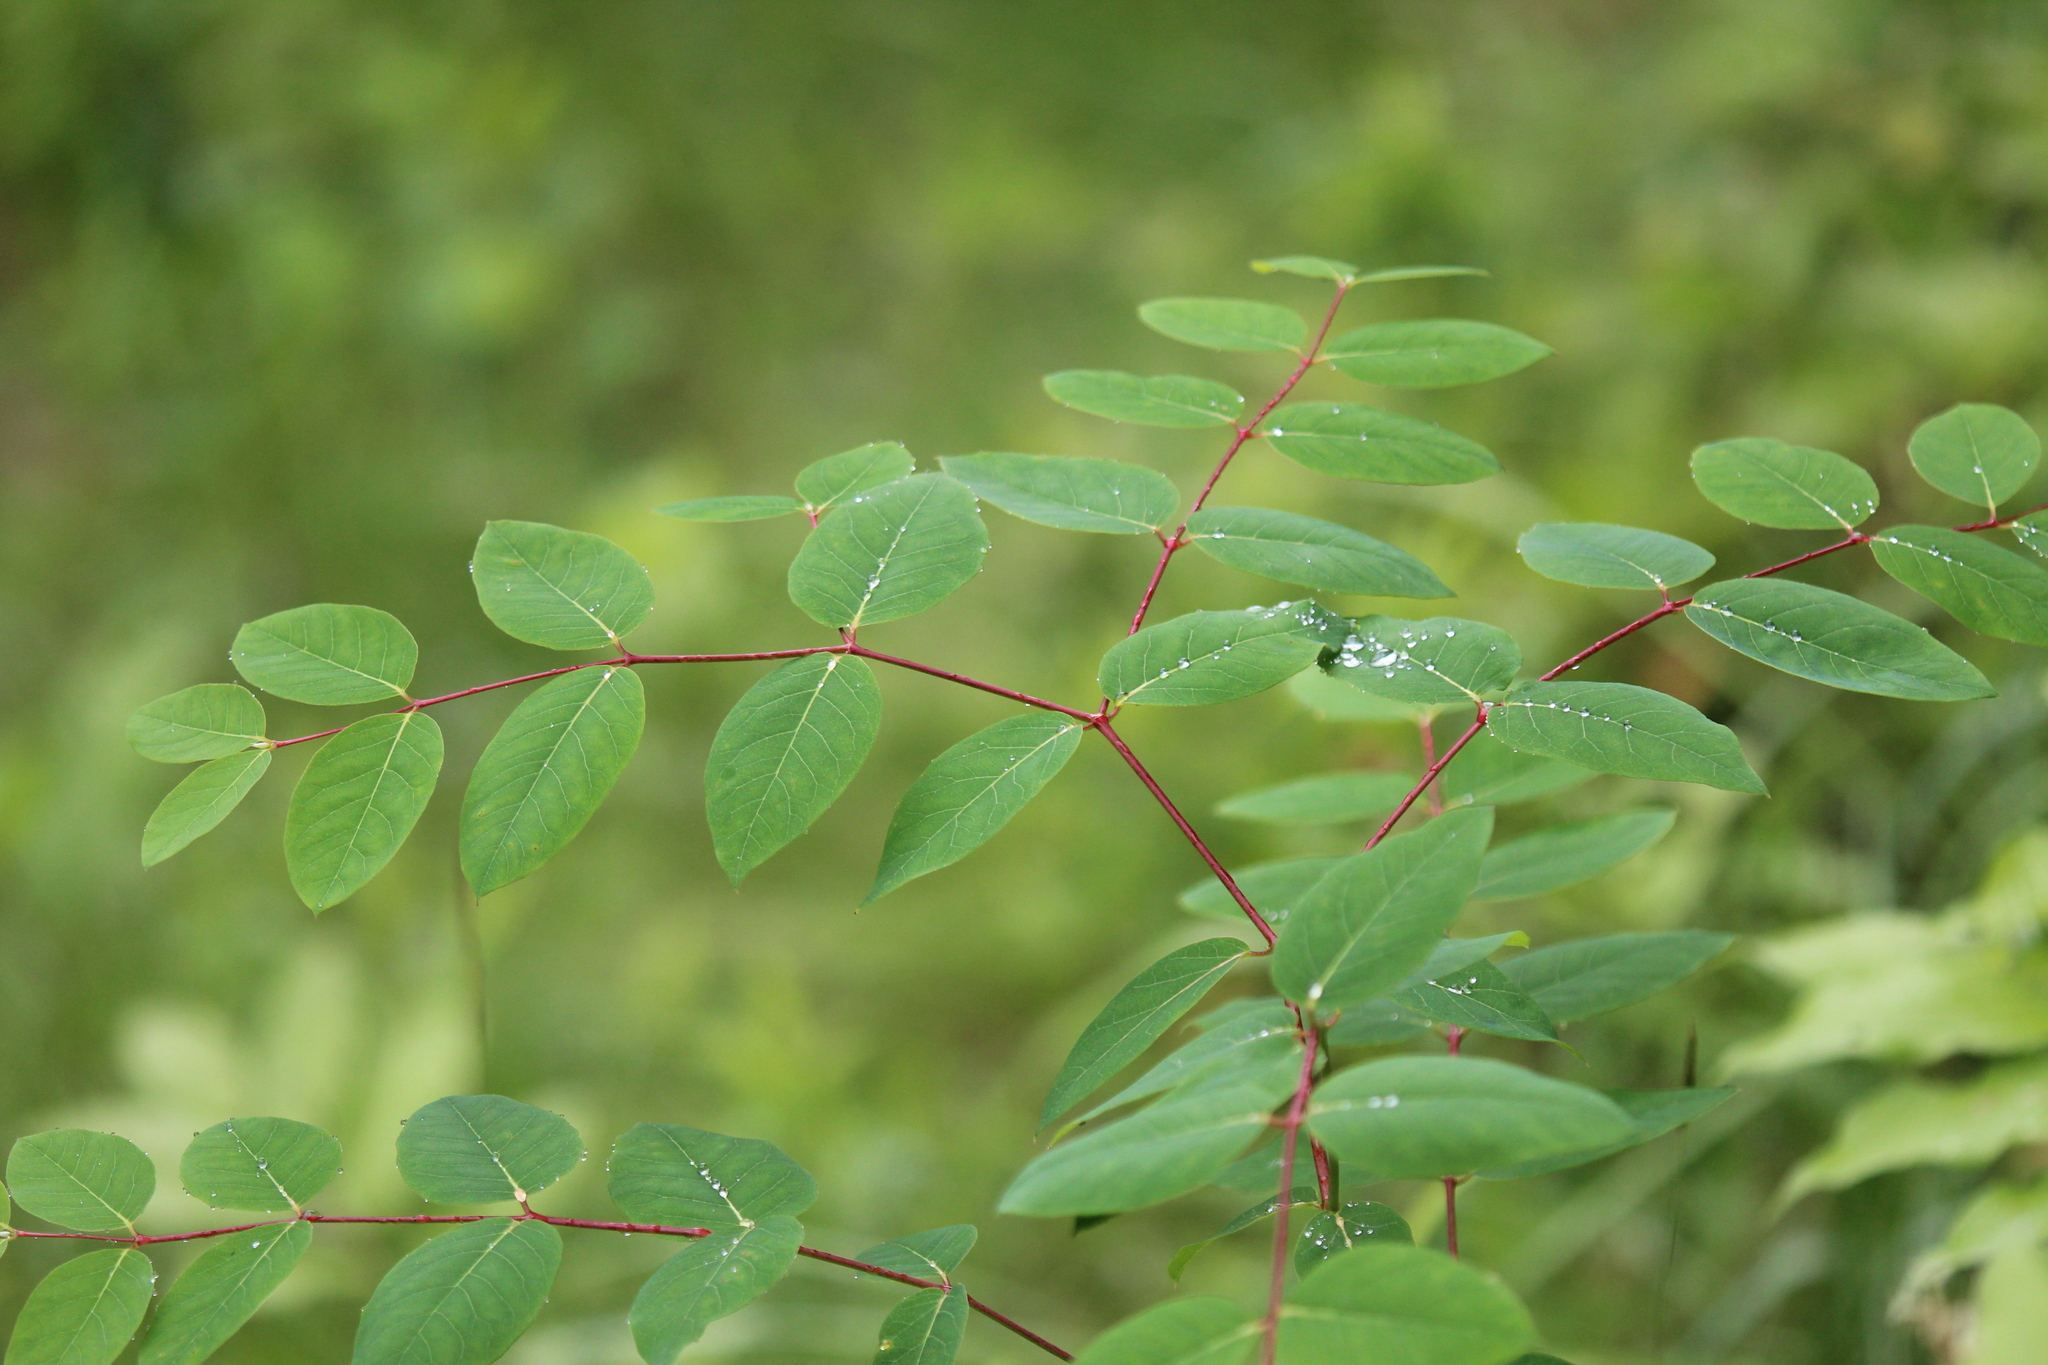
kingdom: Plantae
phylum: Tracheophyta
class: Magnoliopsida
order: Gentianales
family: Apocynaceae
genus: Apocynum
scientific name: Apocynum androsaemifolium
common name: Spreading dogbane
